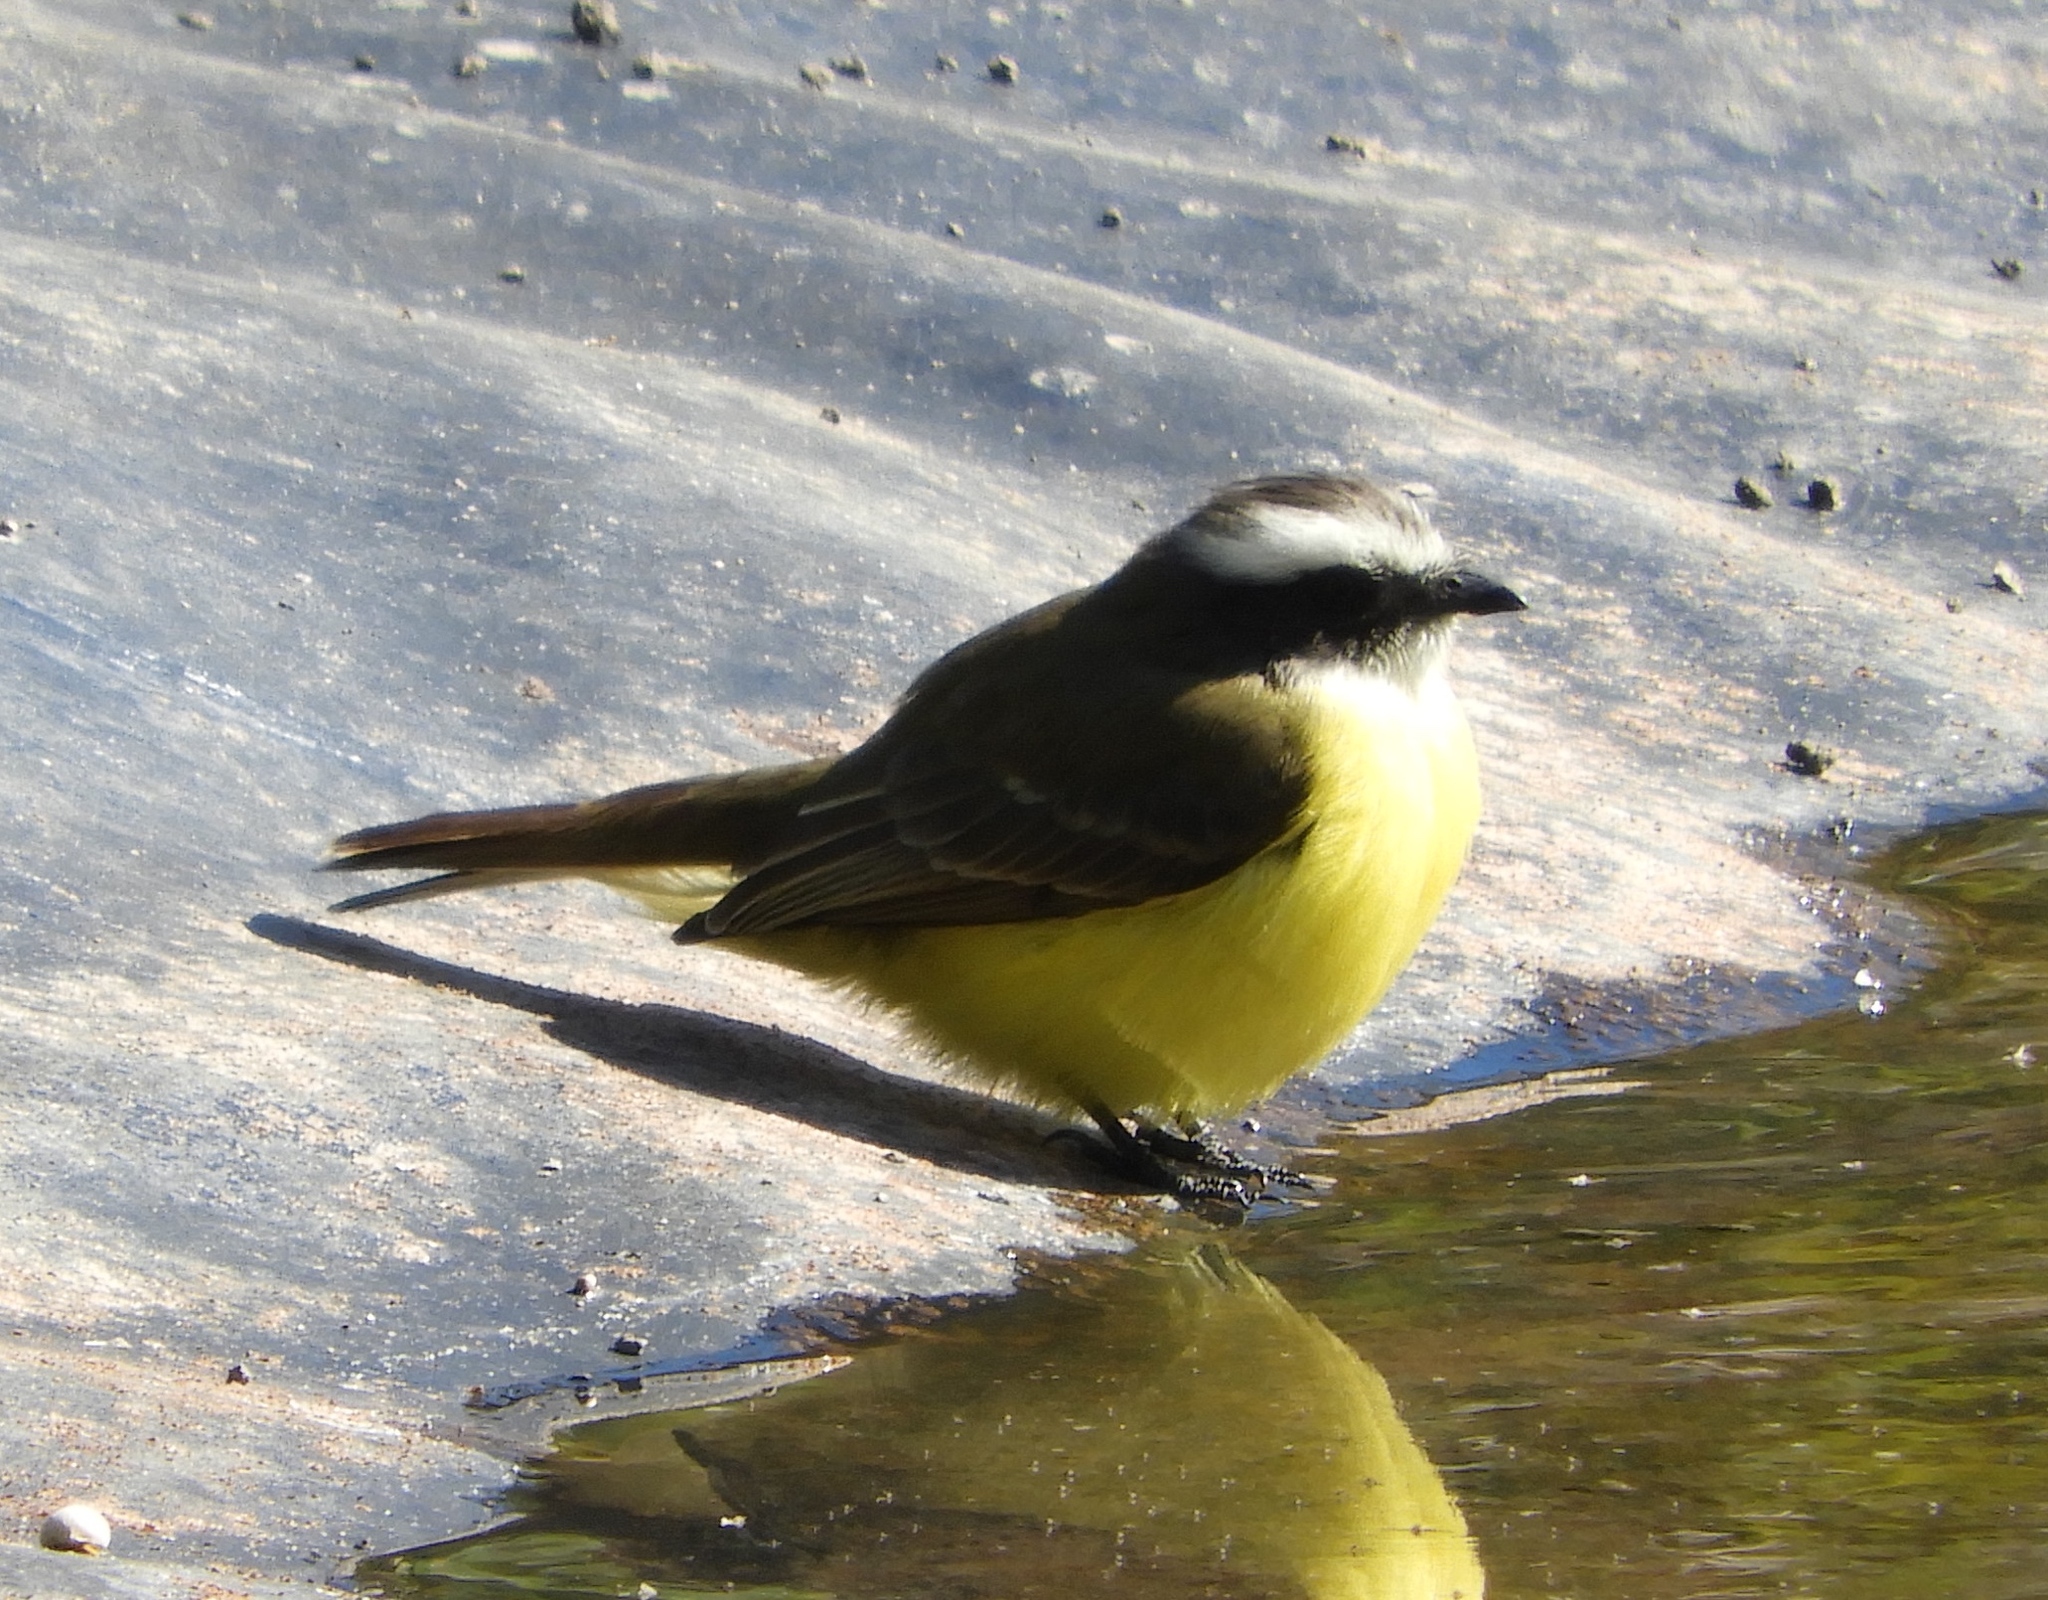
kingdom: Animalia
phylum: Chordata
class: Aves
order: Passeriformes
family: Tyrannidae
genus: Myiozetetes
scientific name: Myiozetetes similis
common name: Social flycatcher
